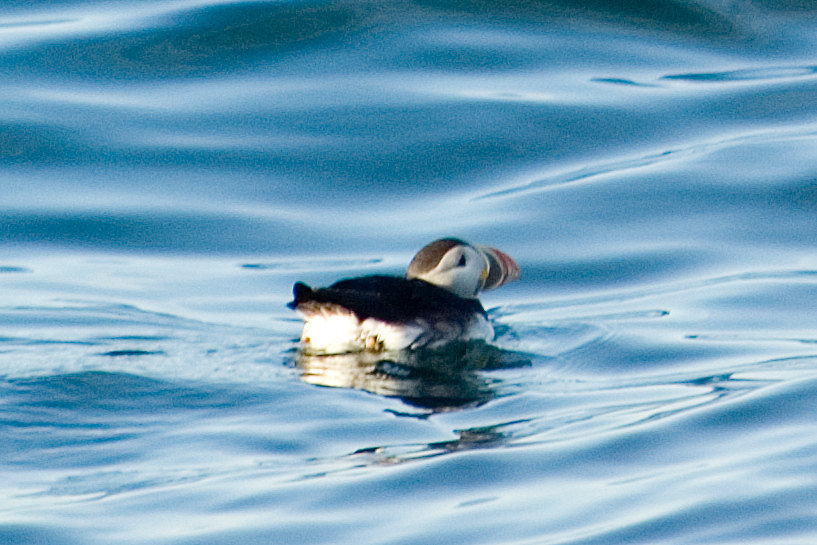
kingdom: Animalia
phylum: Chordata
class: Aves
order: Charadriiformes
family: Alcidae
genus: Fratercula
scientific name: Fratercula arctica
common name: Atlantic puffin
